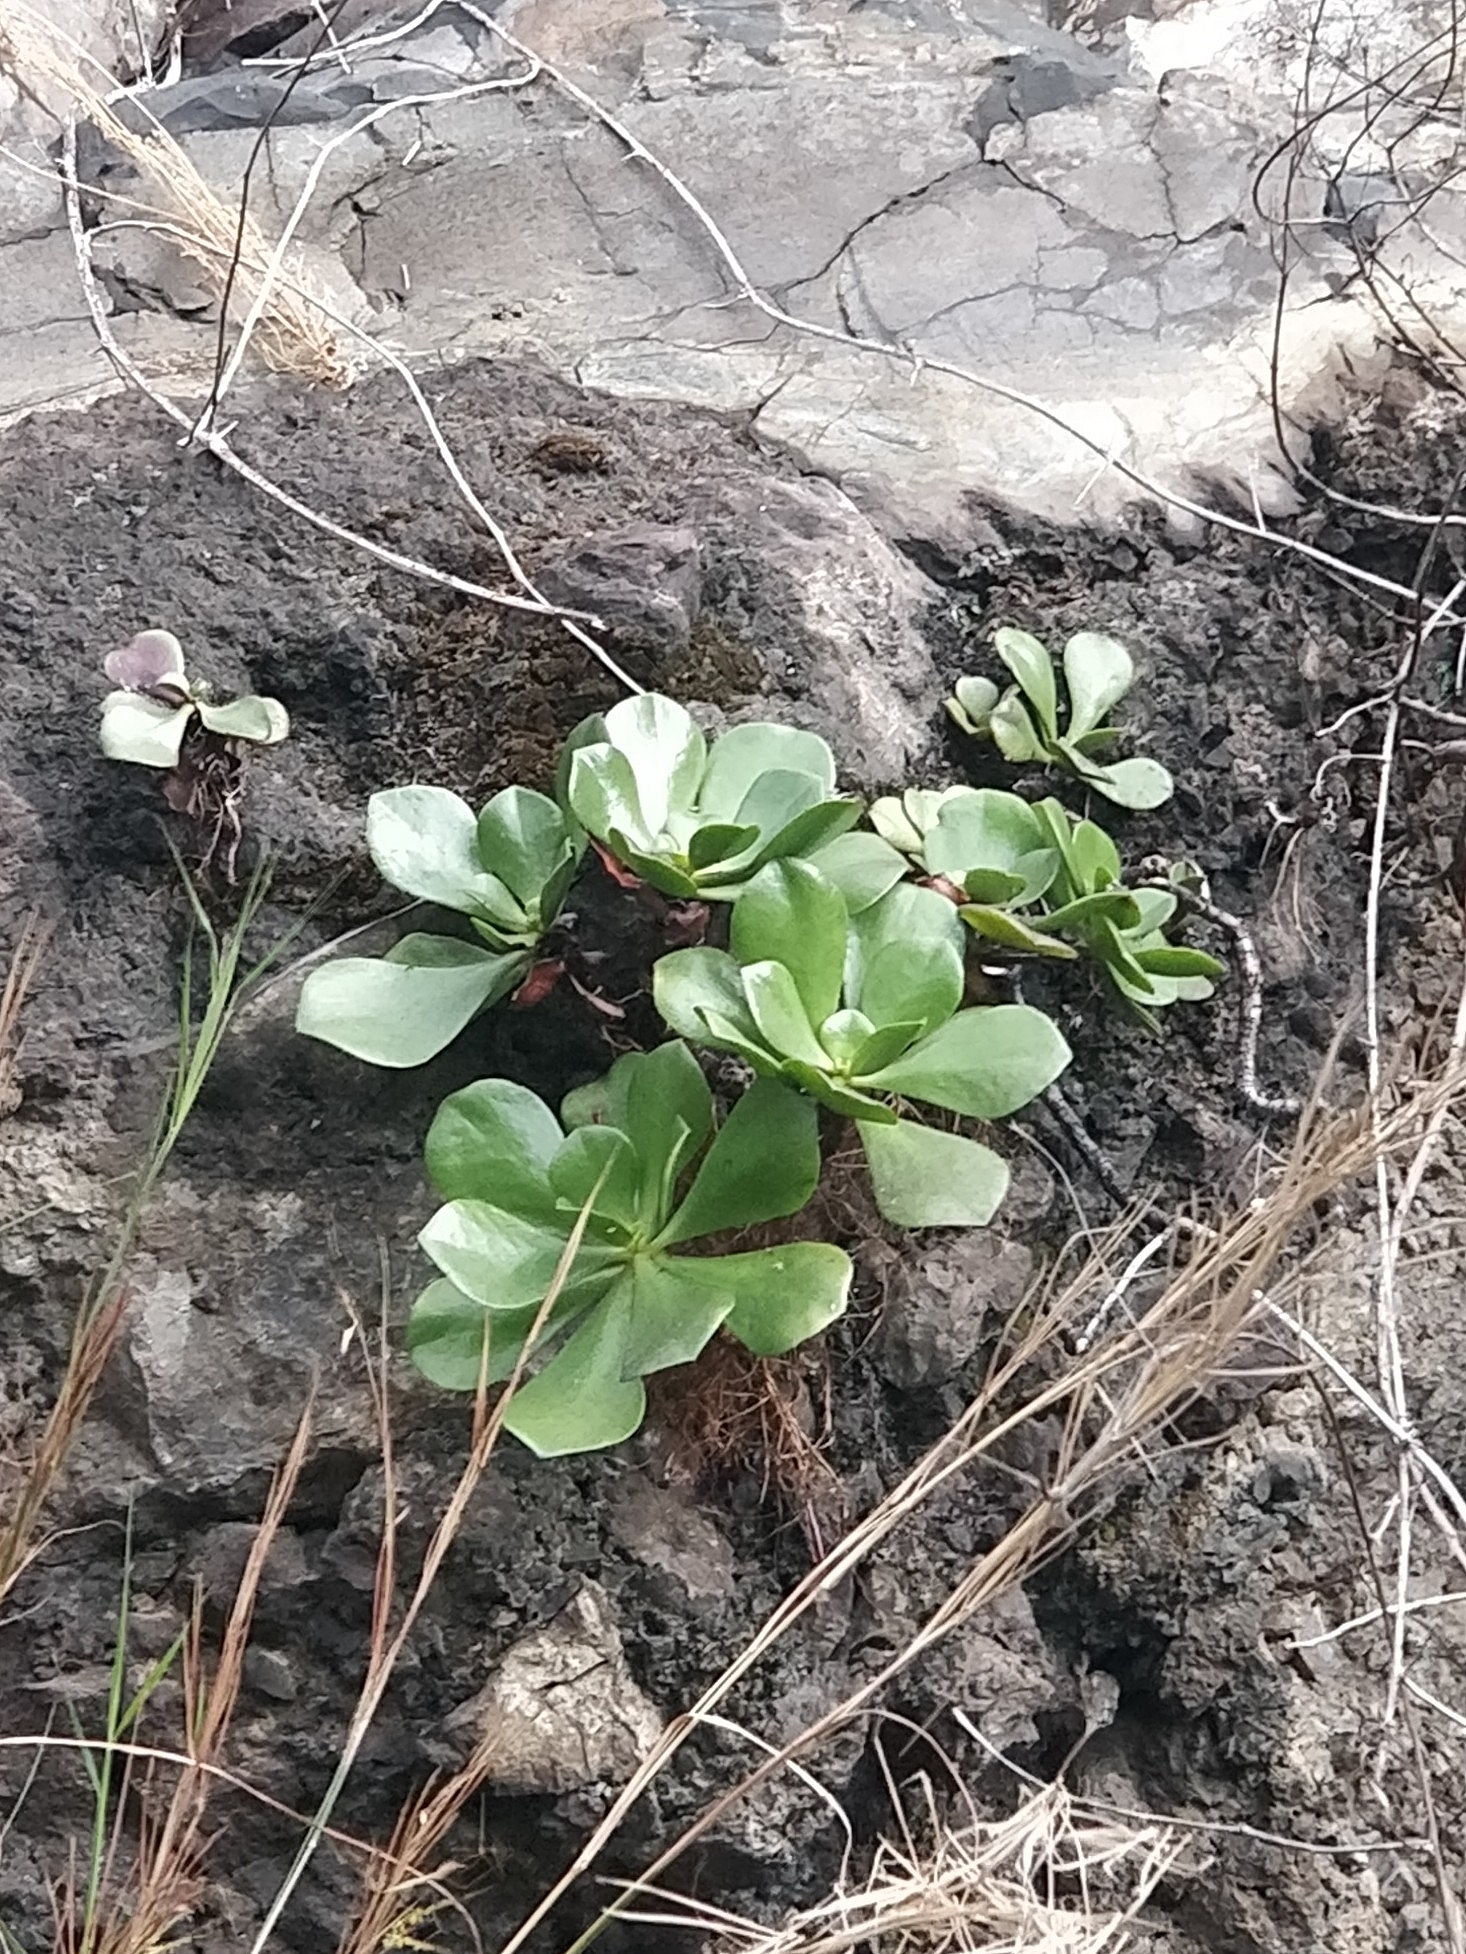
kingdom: Plantae
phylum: Tracheophyta
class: Magnoliopsida
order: Saxifragales
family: Crassulaceae
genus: Aeonium
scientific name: Aeonium glutinosum
